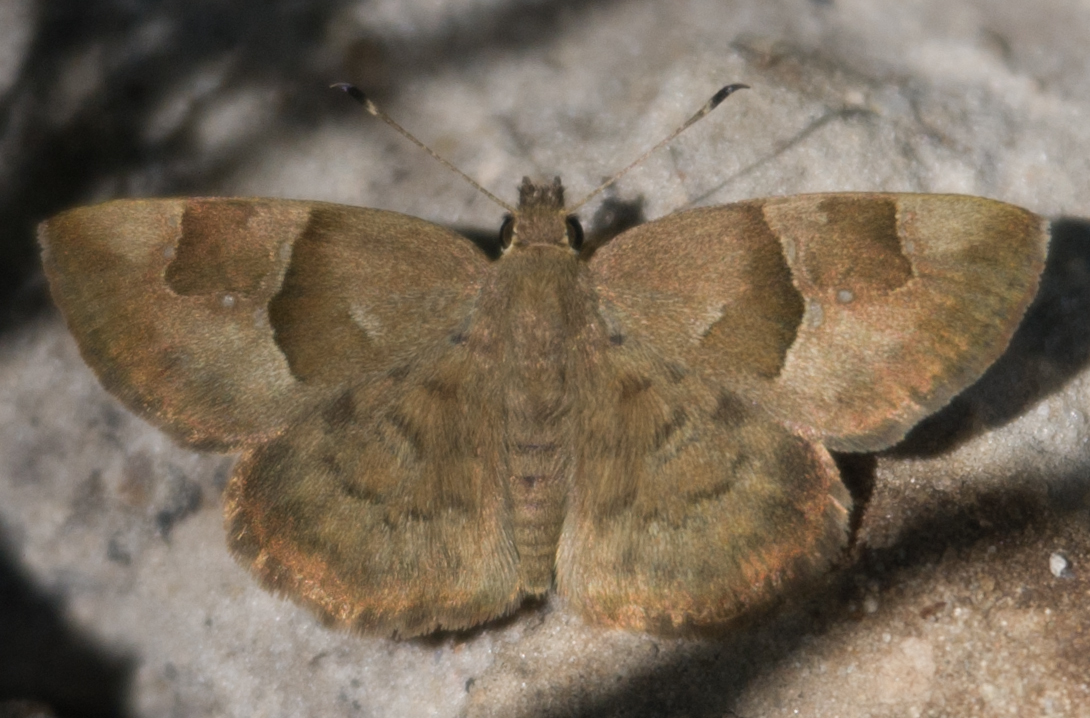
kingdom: Animalia
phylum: Arthropoda
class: Insecta
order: Lepidoptera
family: Hesperiidae
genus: Sarangesa
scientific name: Sarangesa phidyle
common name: Small elfin
